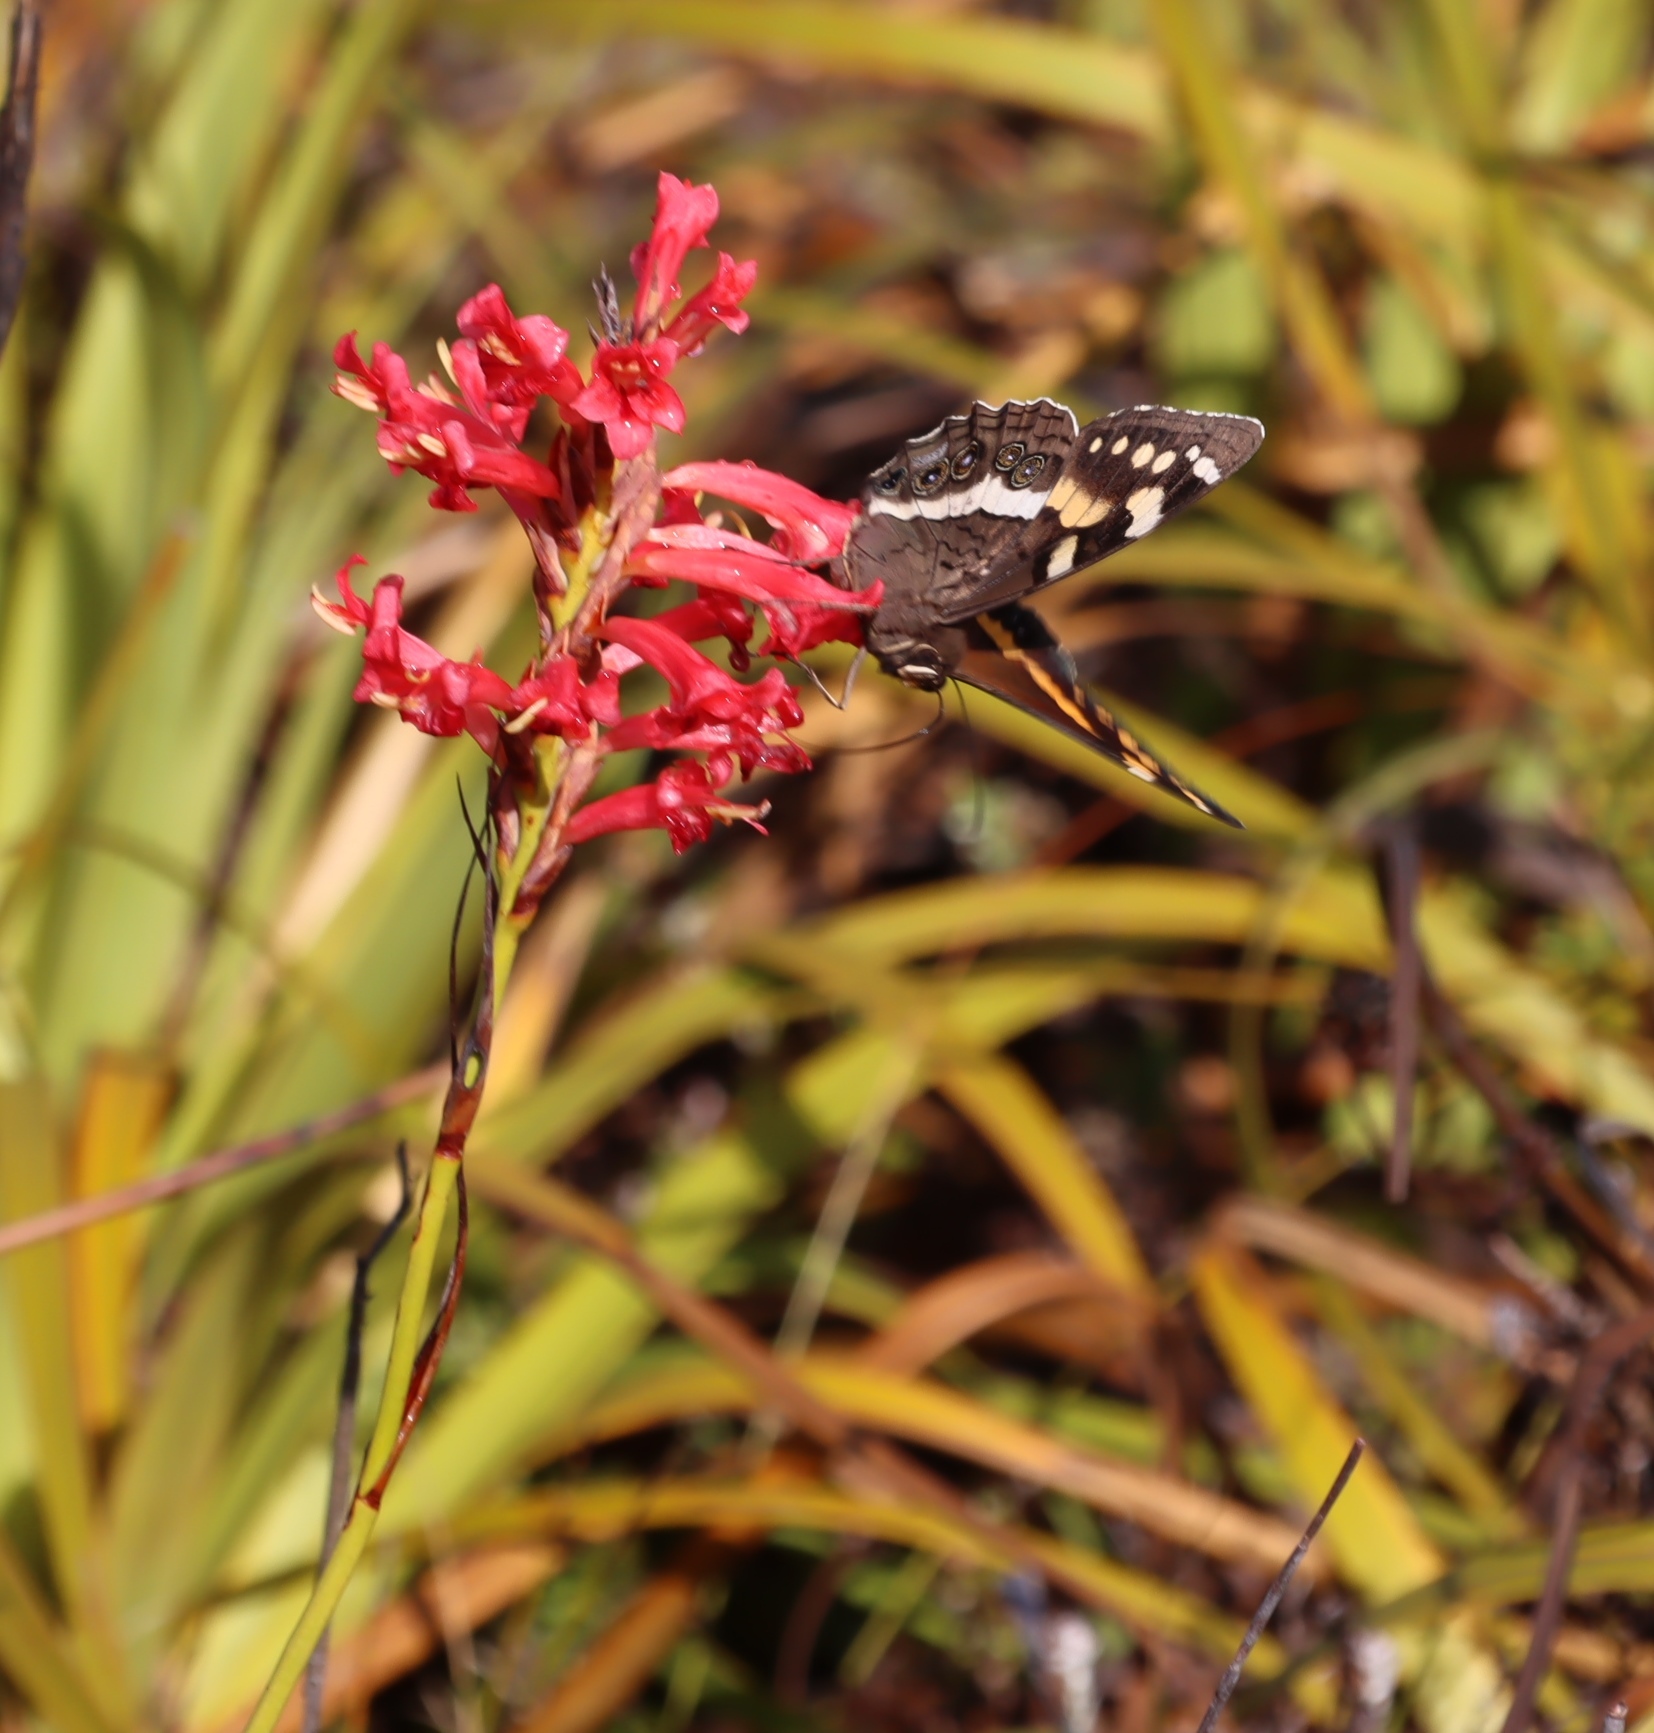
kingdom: Plantae
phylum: Tracheophyta
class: Liliopsida
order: Asparagales
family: Iridaceae
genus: Tritoniopsis
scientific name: Tritoniopsis triticea
